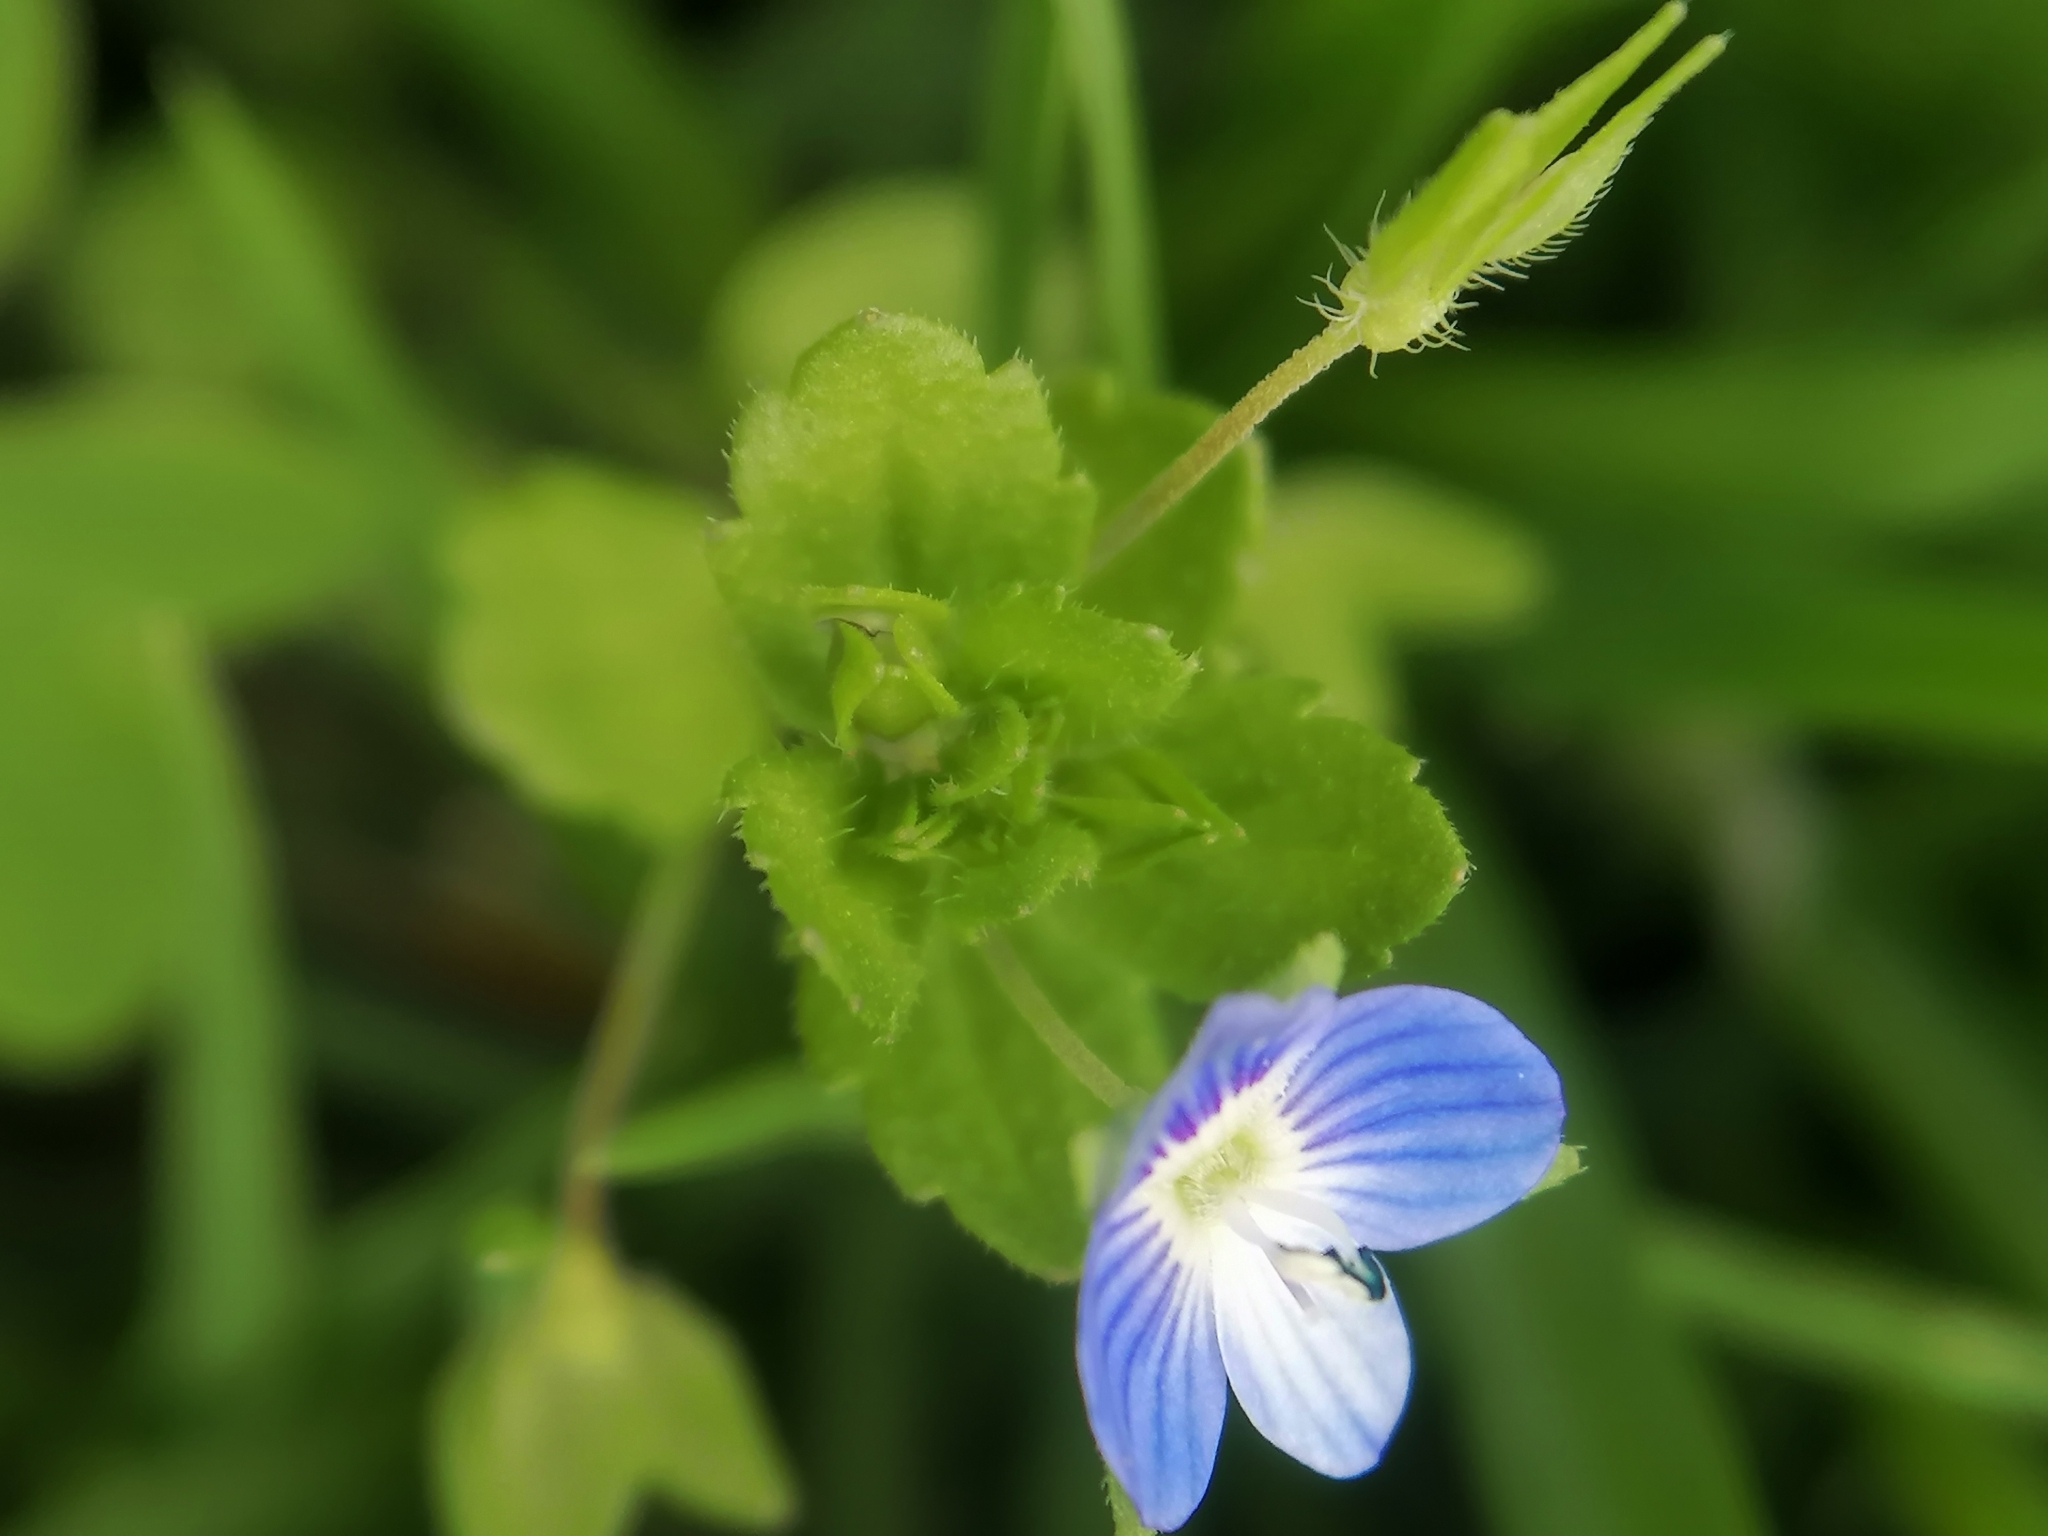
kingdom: Plantae
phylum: Tracheophyta
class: Magnoliopsida
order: Lamiales
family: Plantaginaceae
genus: Veronica
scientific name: Veronica persica
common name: Common field-speedwell
